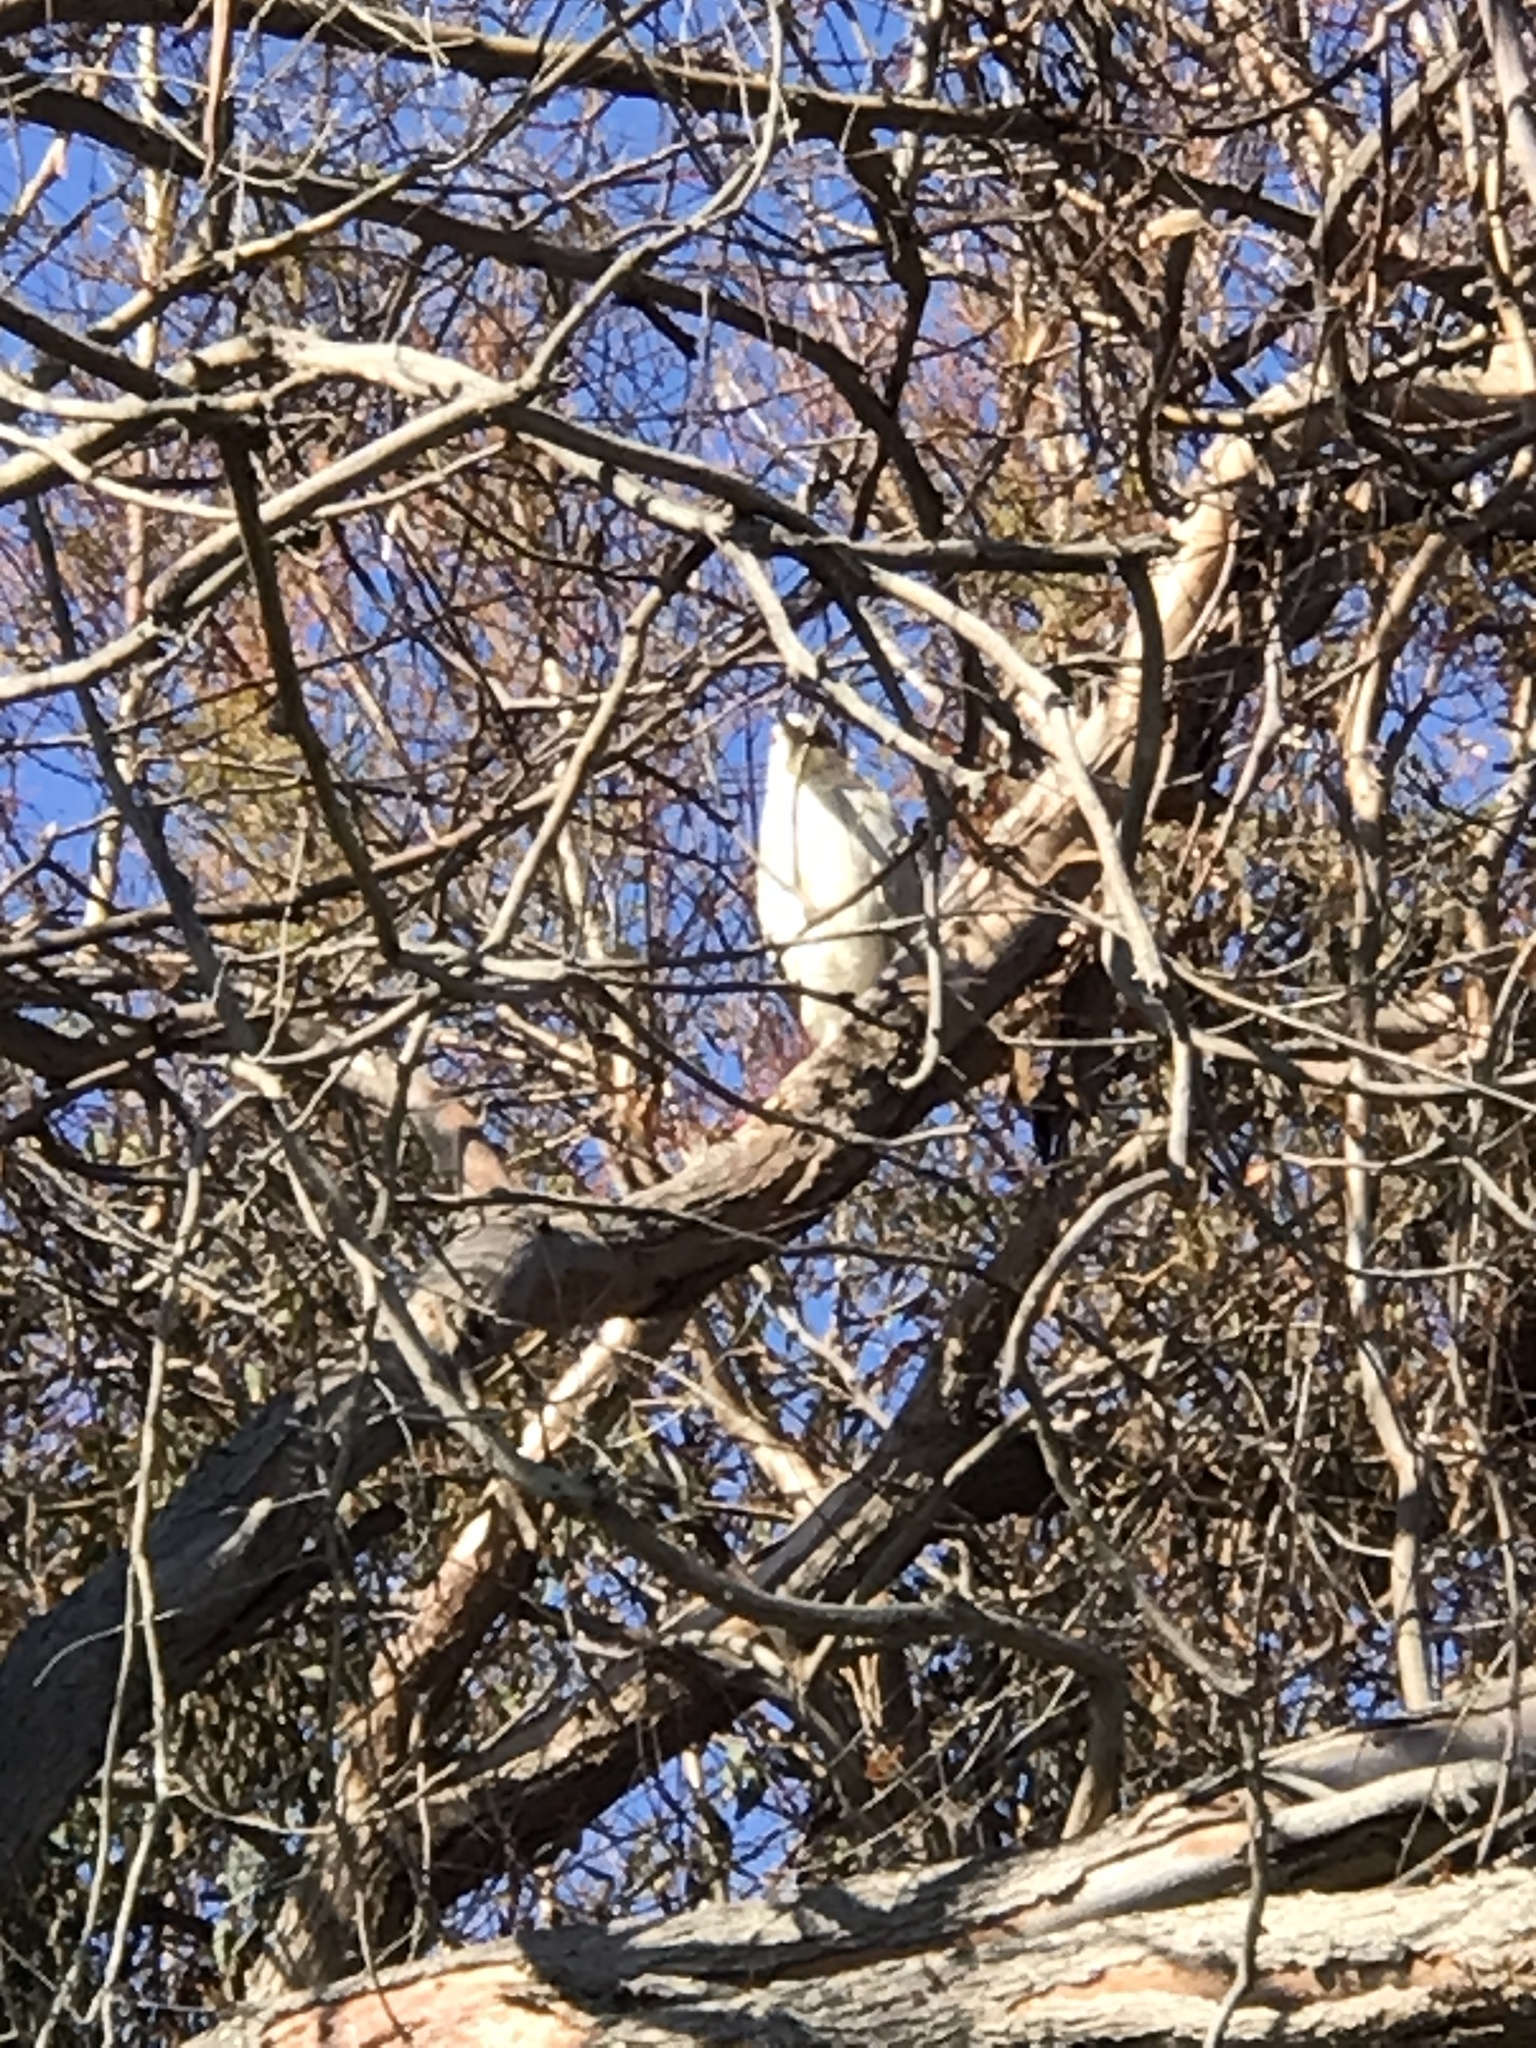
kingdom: Animalia
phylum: Chordata
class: Aves
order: Pelecaniformes
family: Ardeidae
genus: Nycticorax
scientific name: Nycticorax nycticorax
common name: Black-crowned night heron
